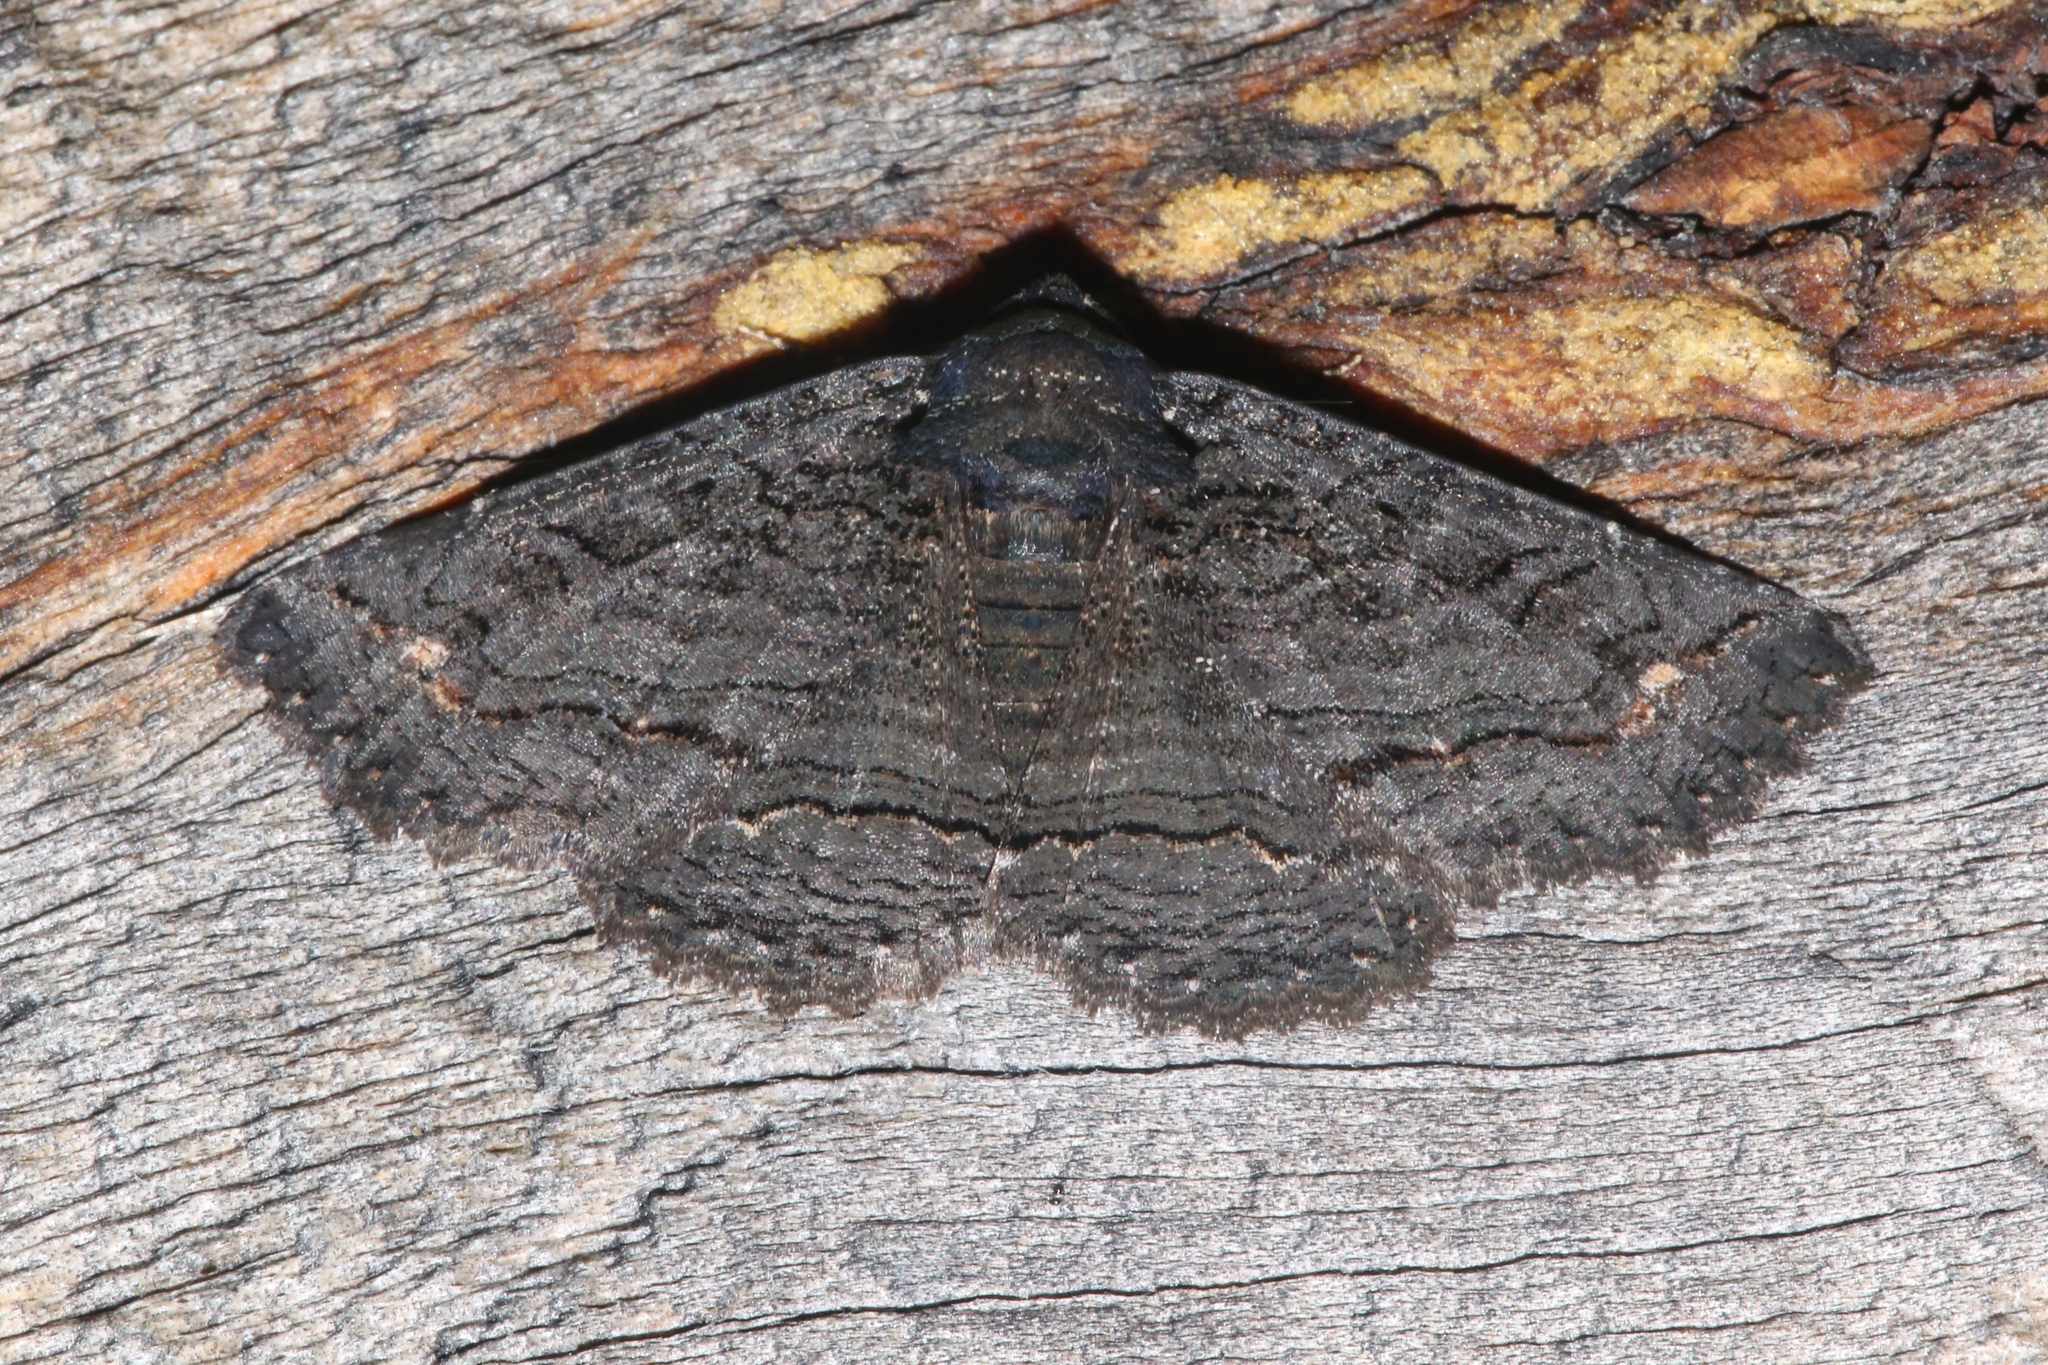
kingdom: Animalia
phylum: Arthropoda
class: Insecta
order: Lepidoptera
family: Erebidae
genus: Zale
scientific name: Zale undularis
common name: Black zale moth
